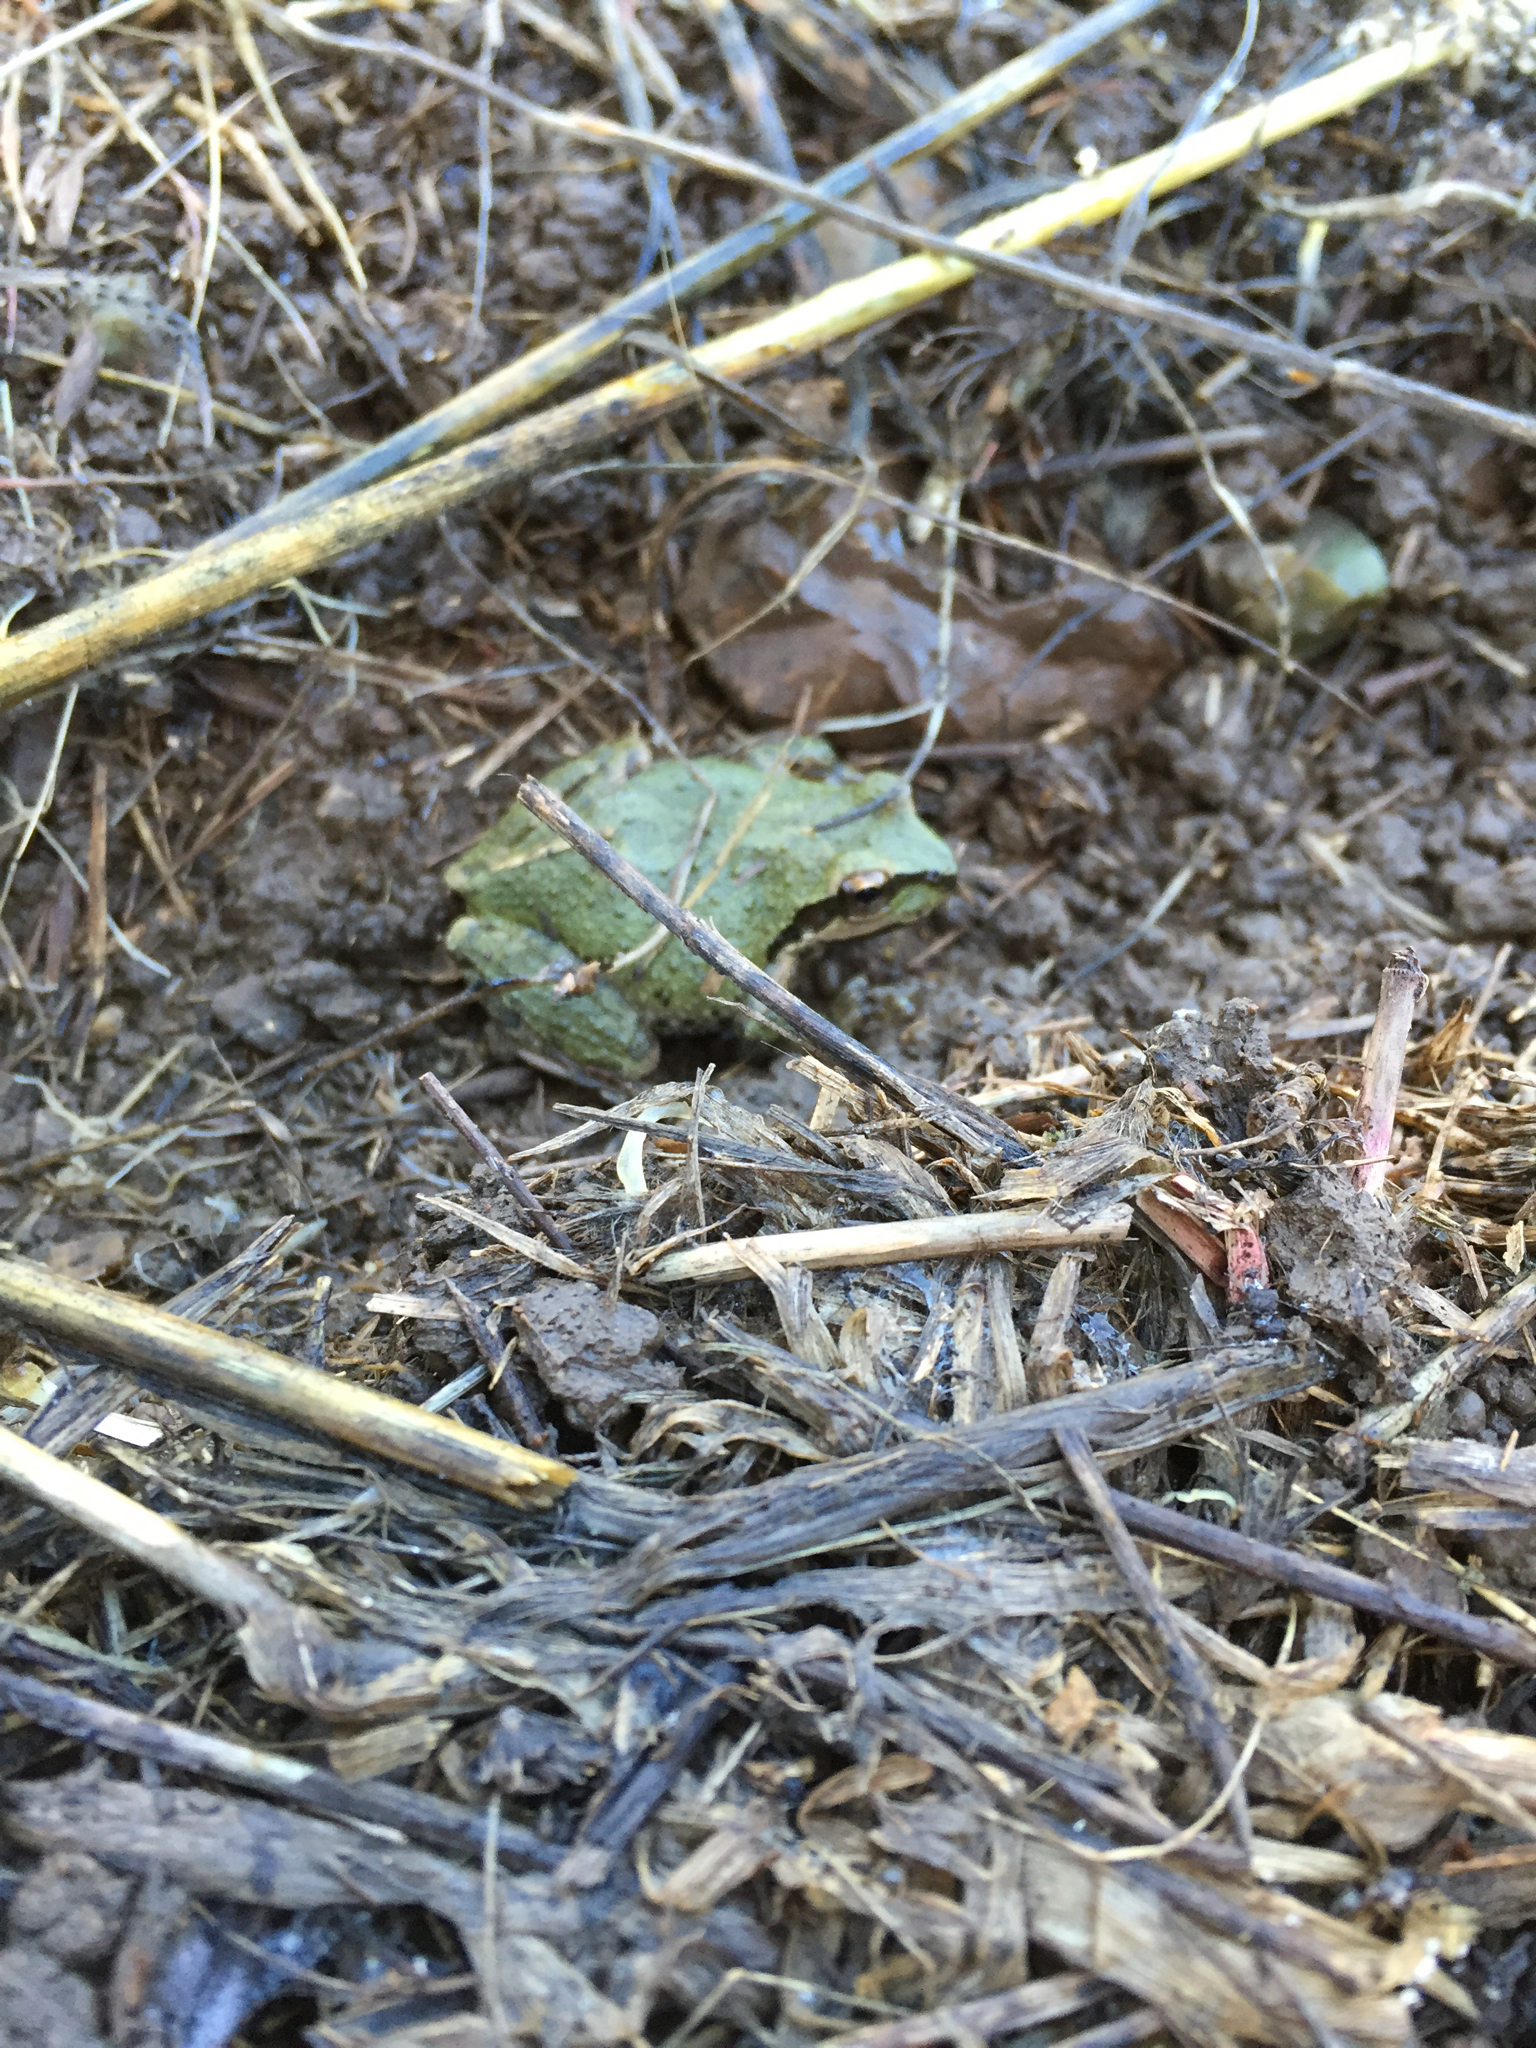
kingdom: Animalia
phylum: Chordata
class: Amphibia
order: Anura
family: Hylidae
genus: Pseudacris
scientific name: Pseudacris regilla
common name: Pacific chorus frog
